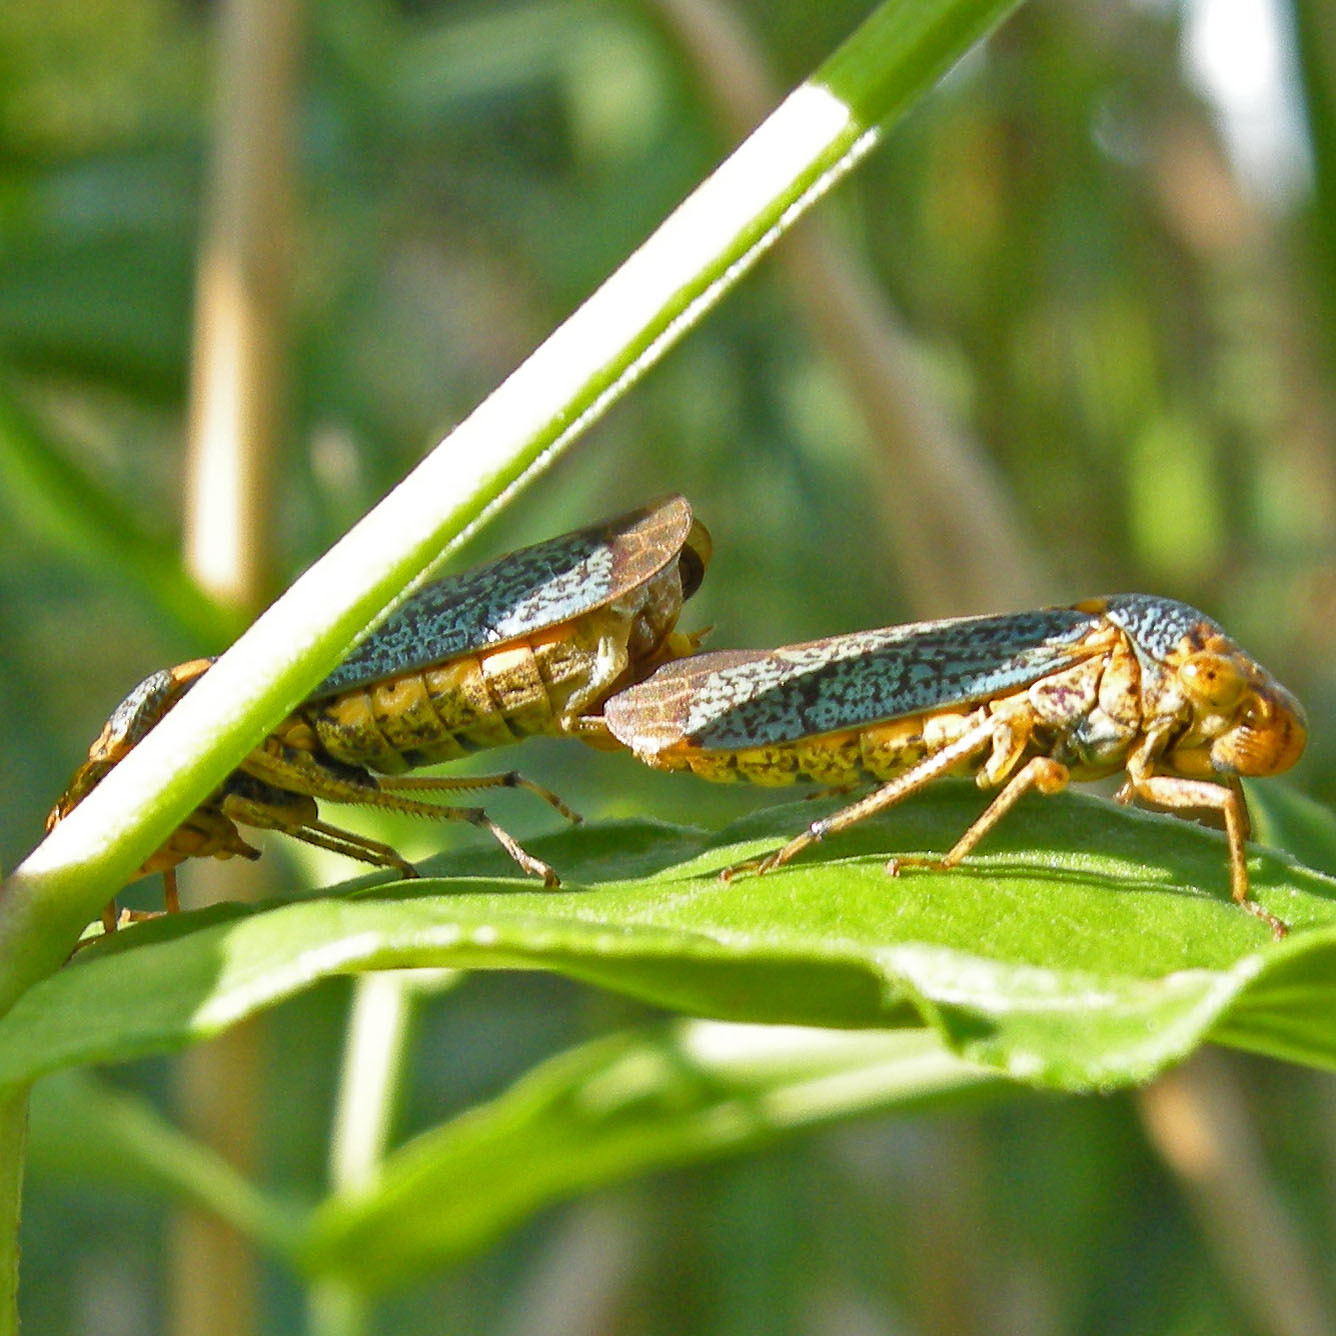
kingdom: Animalia
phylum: Arthropoda
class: Insecta
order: Hemiptera
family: Cicadellidae
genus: Oncometopia
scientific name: Oncometopia orbona
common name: Broad-headed sharpshooter
